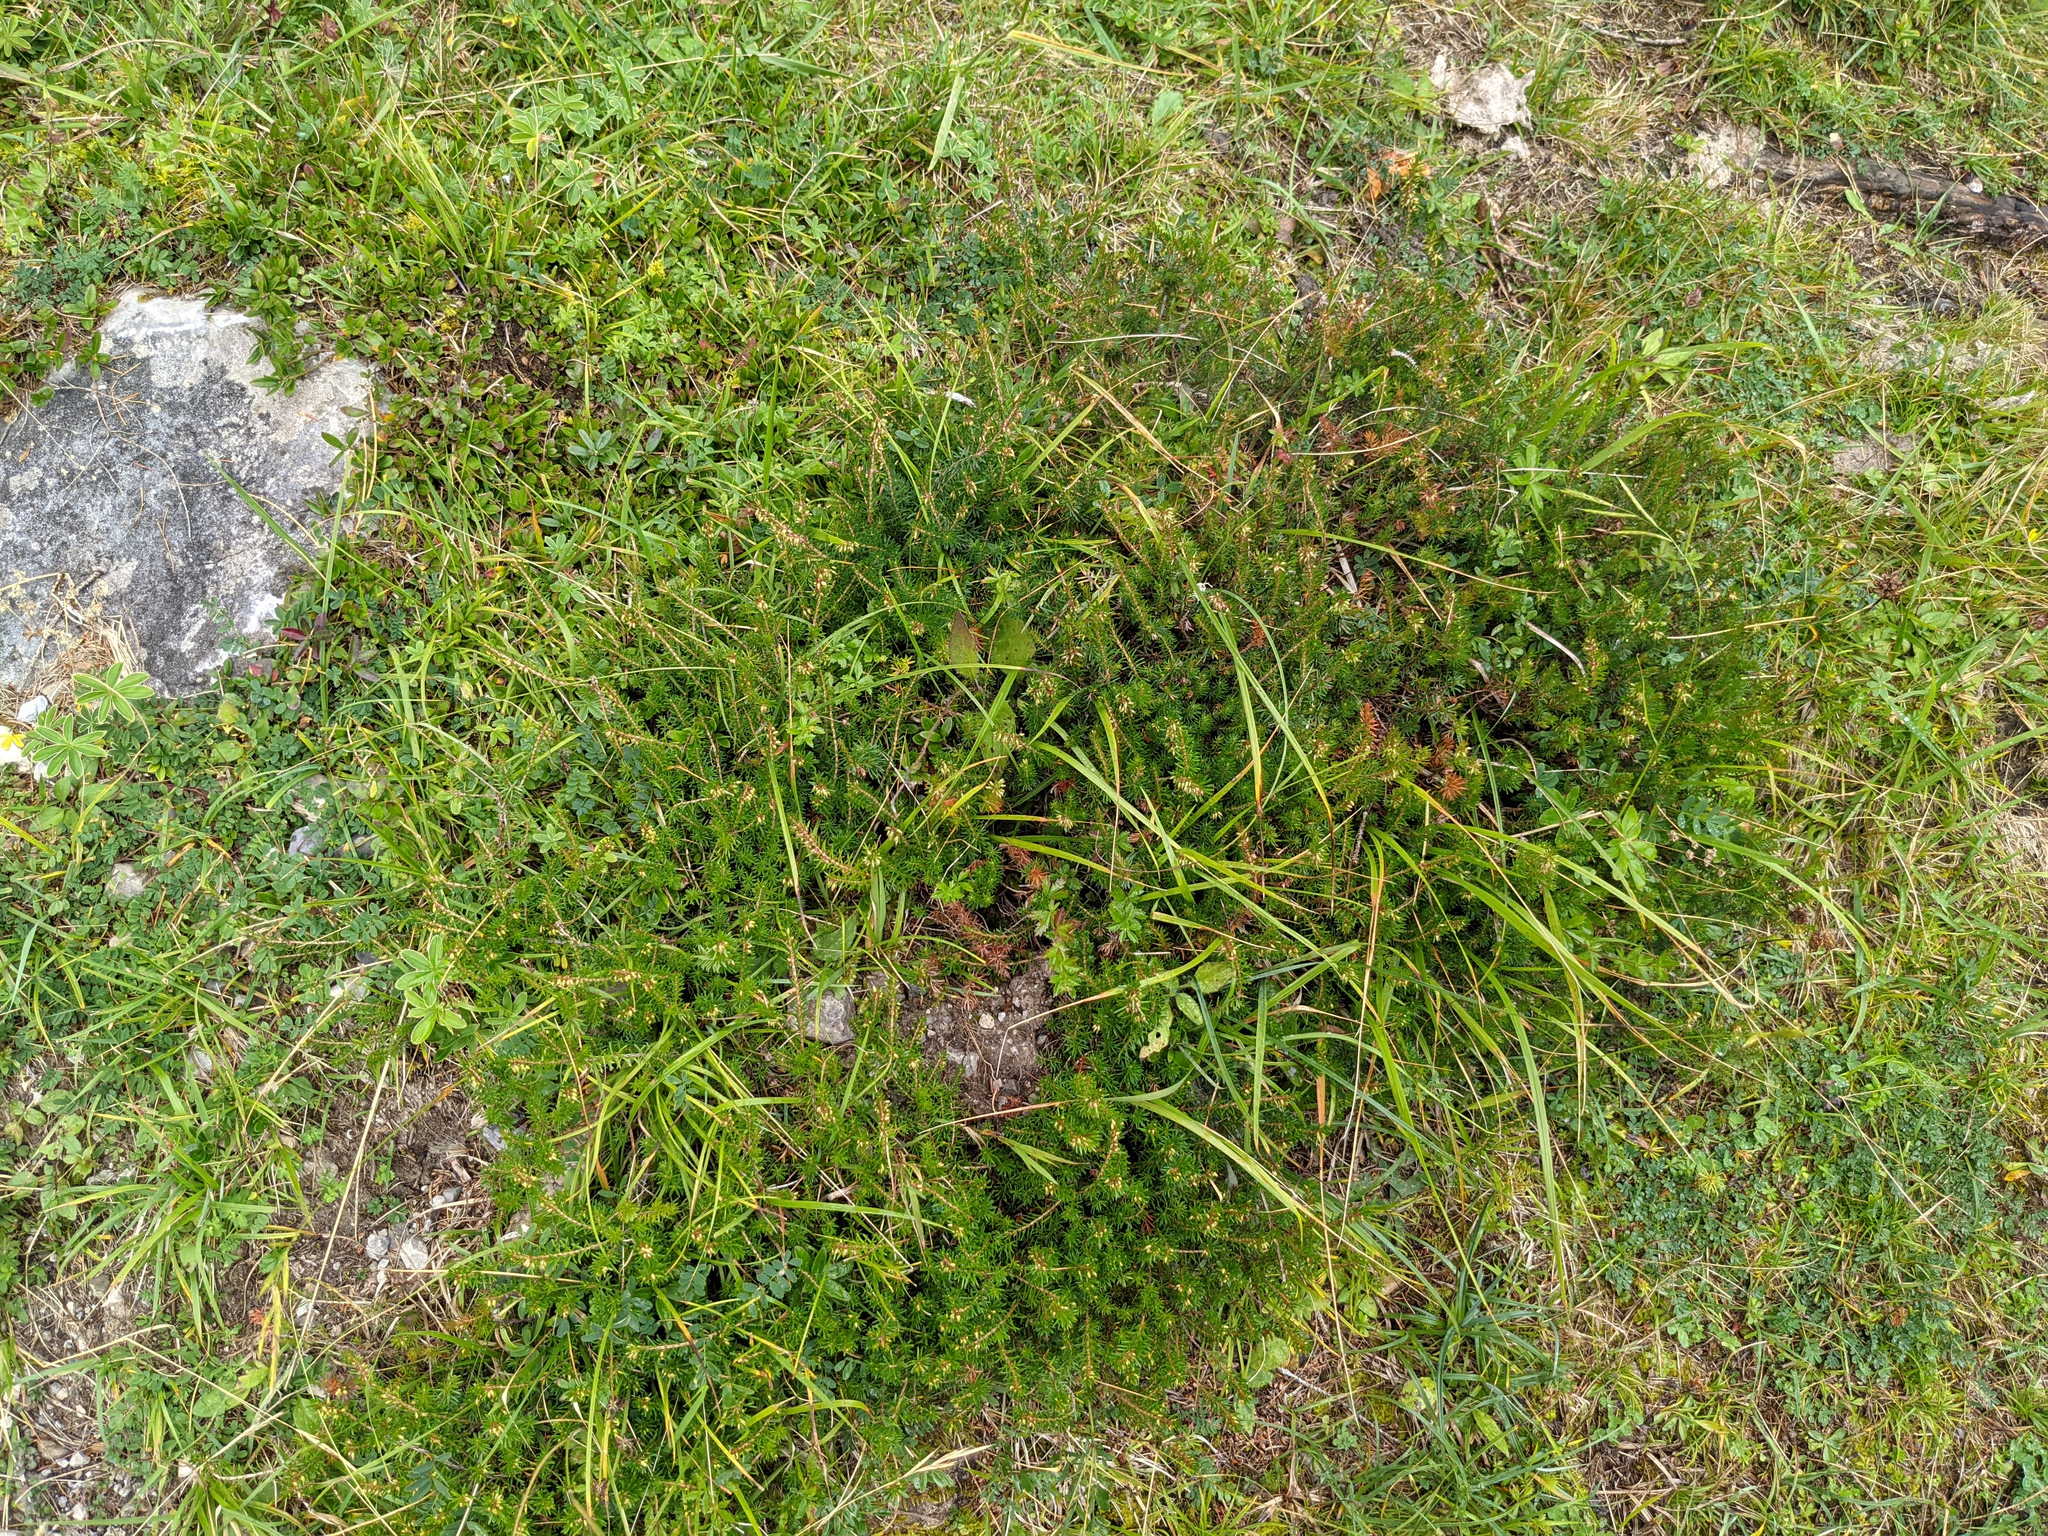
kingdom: Plantae
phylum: Tracheophyta
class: Magnoliopsida
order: Ericales
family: Ericaceae
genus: Erica
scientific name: Erica carnea
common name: Winter heath
